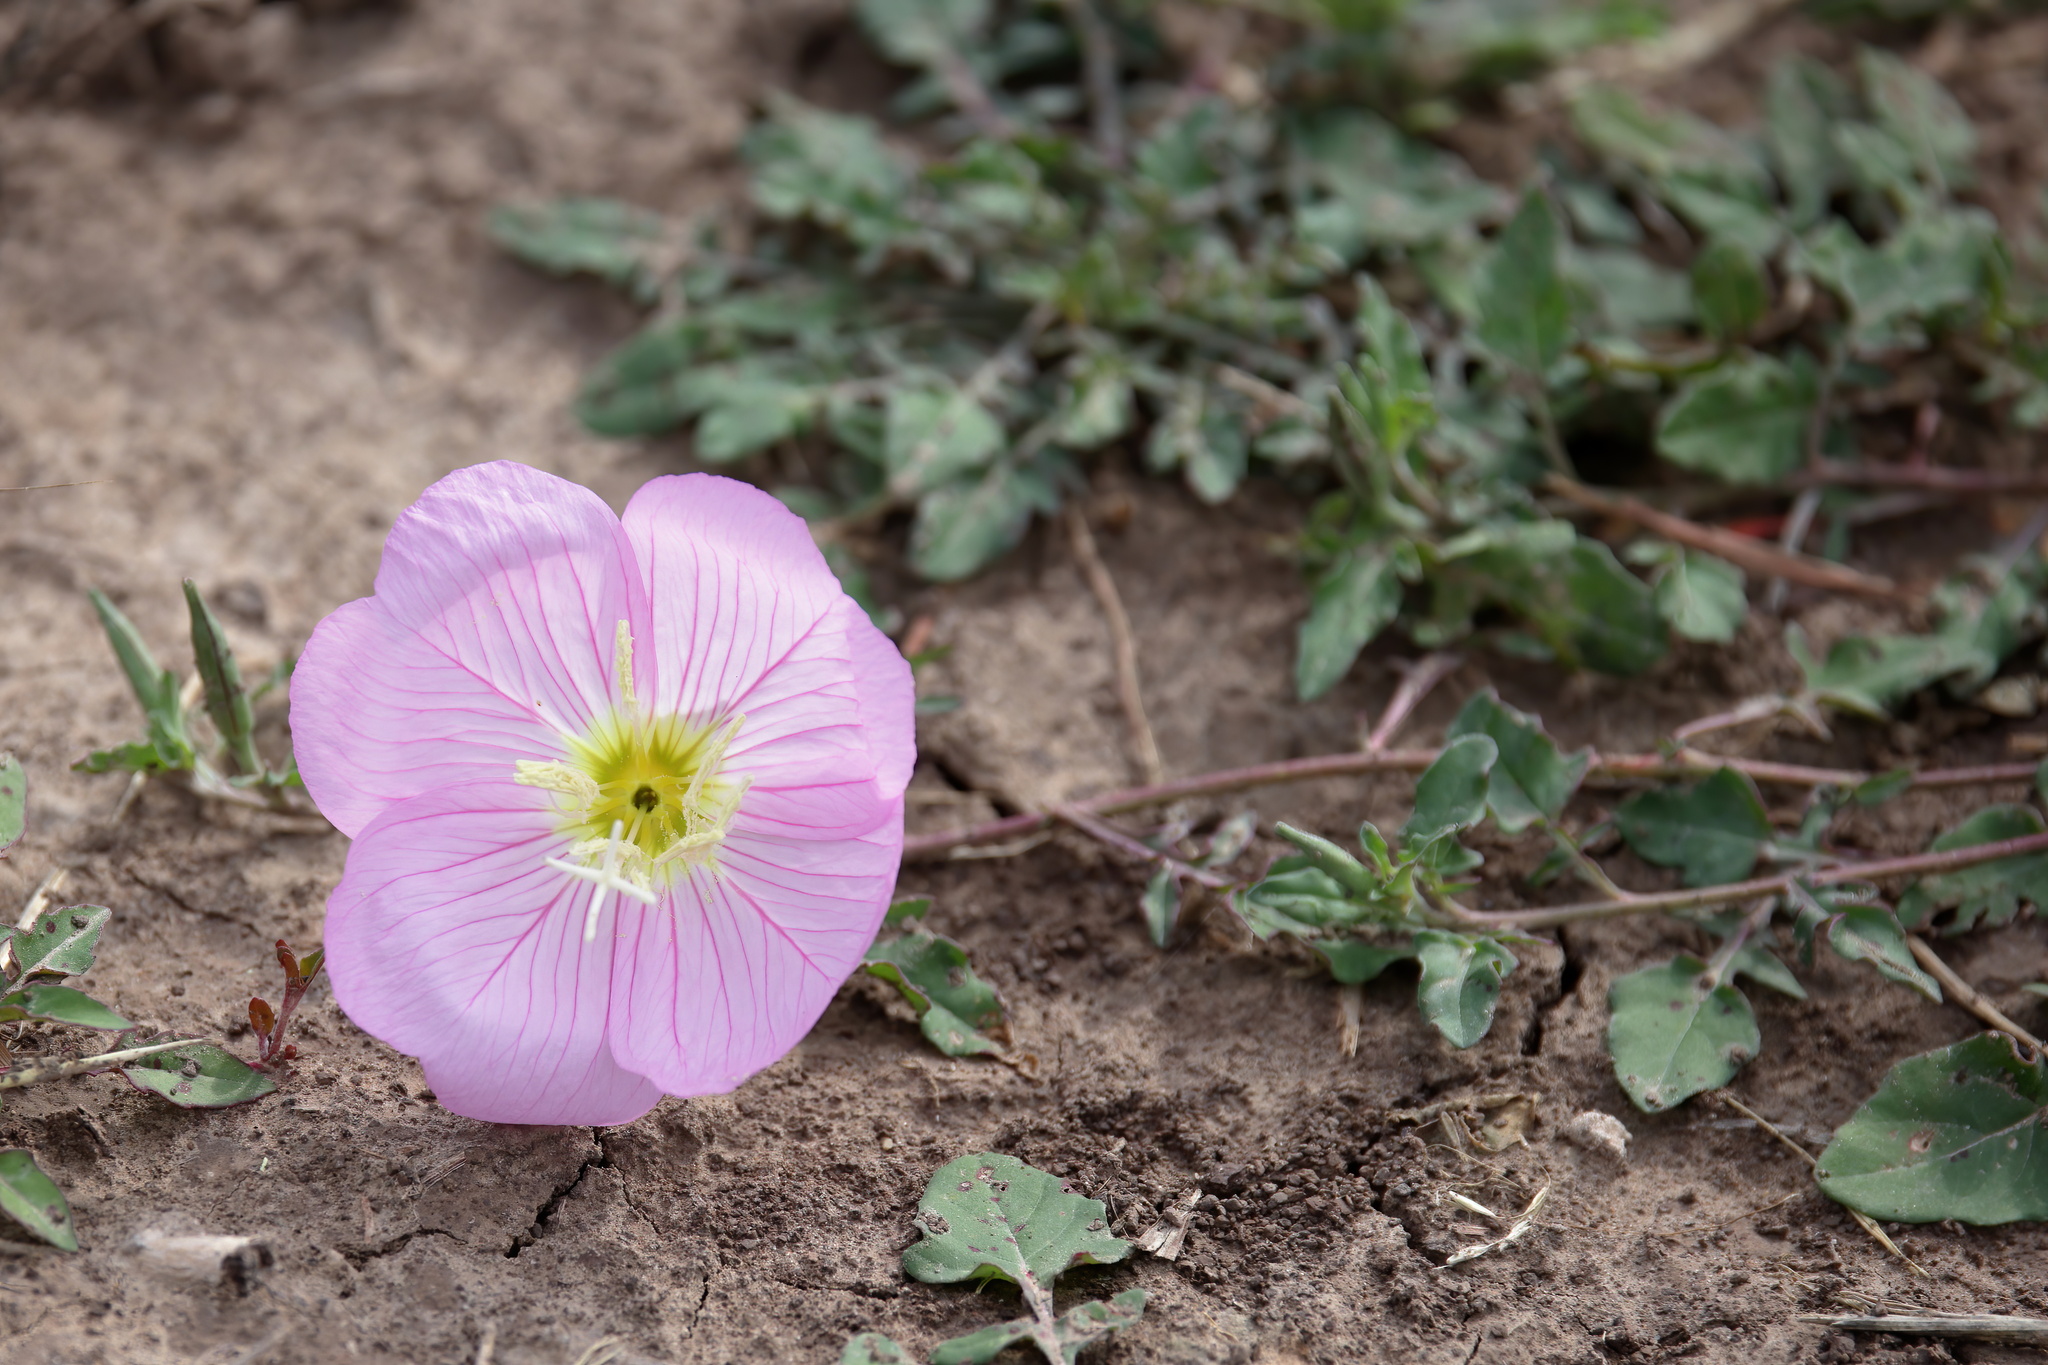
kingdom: Plantae
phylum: Tracheophyta
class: Magnoliopsida
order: Myrtales
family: Onagraceae
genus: Oenothera
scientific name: Oenothera speciosa
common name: White evening-primrose
